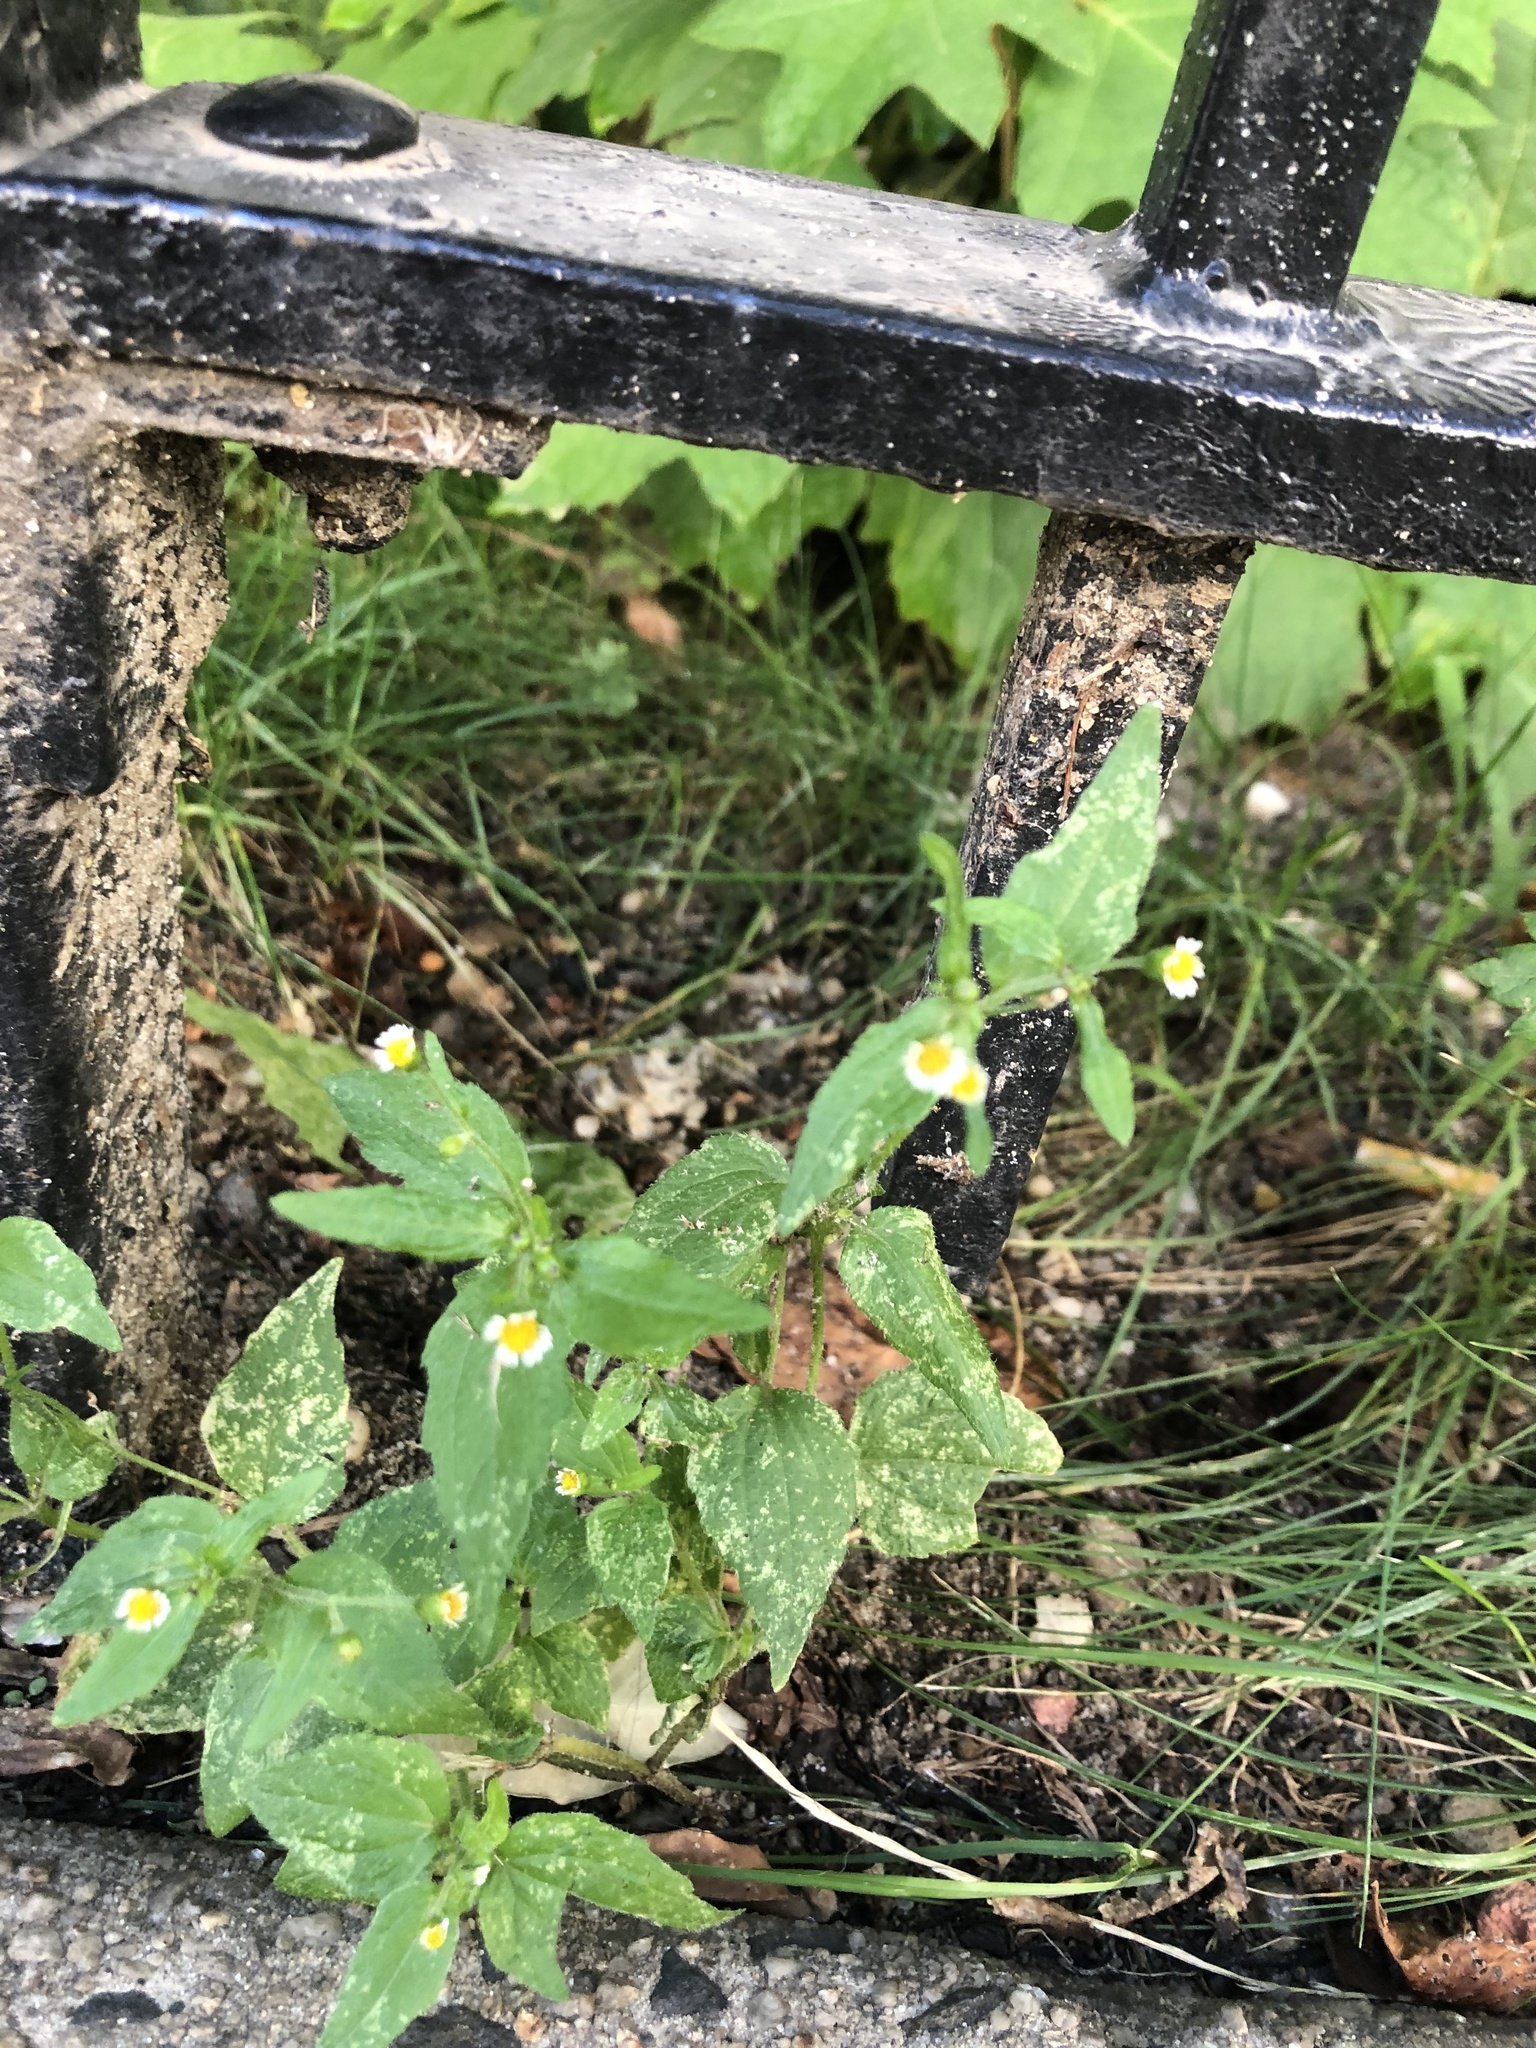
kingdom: Plantae
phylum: Tracheophyta
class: Magnoliopsida
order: Asterales
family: Asteraceae
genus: Galinsoga
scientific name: Galinsoga quadriradiata
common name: Shaggy soldier
